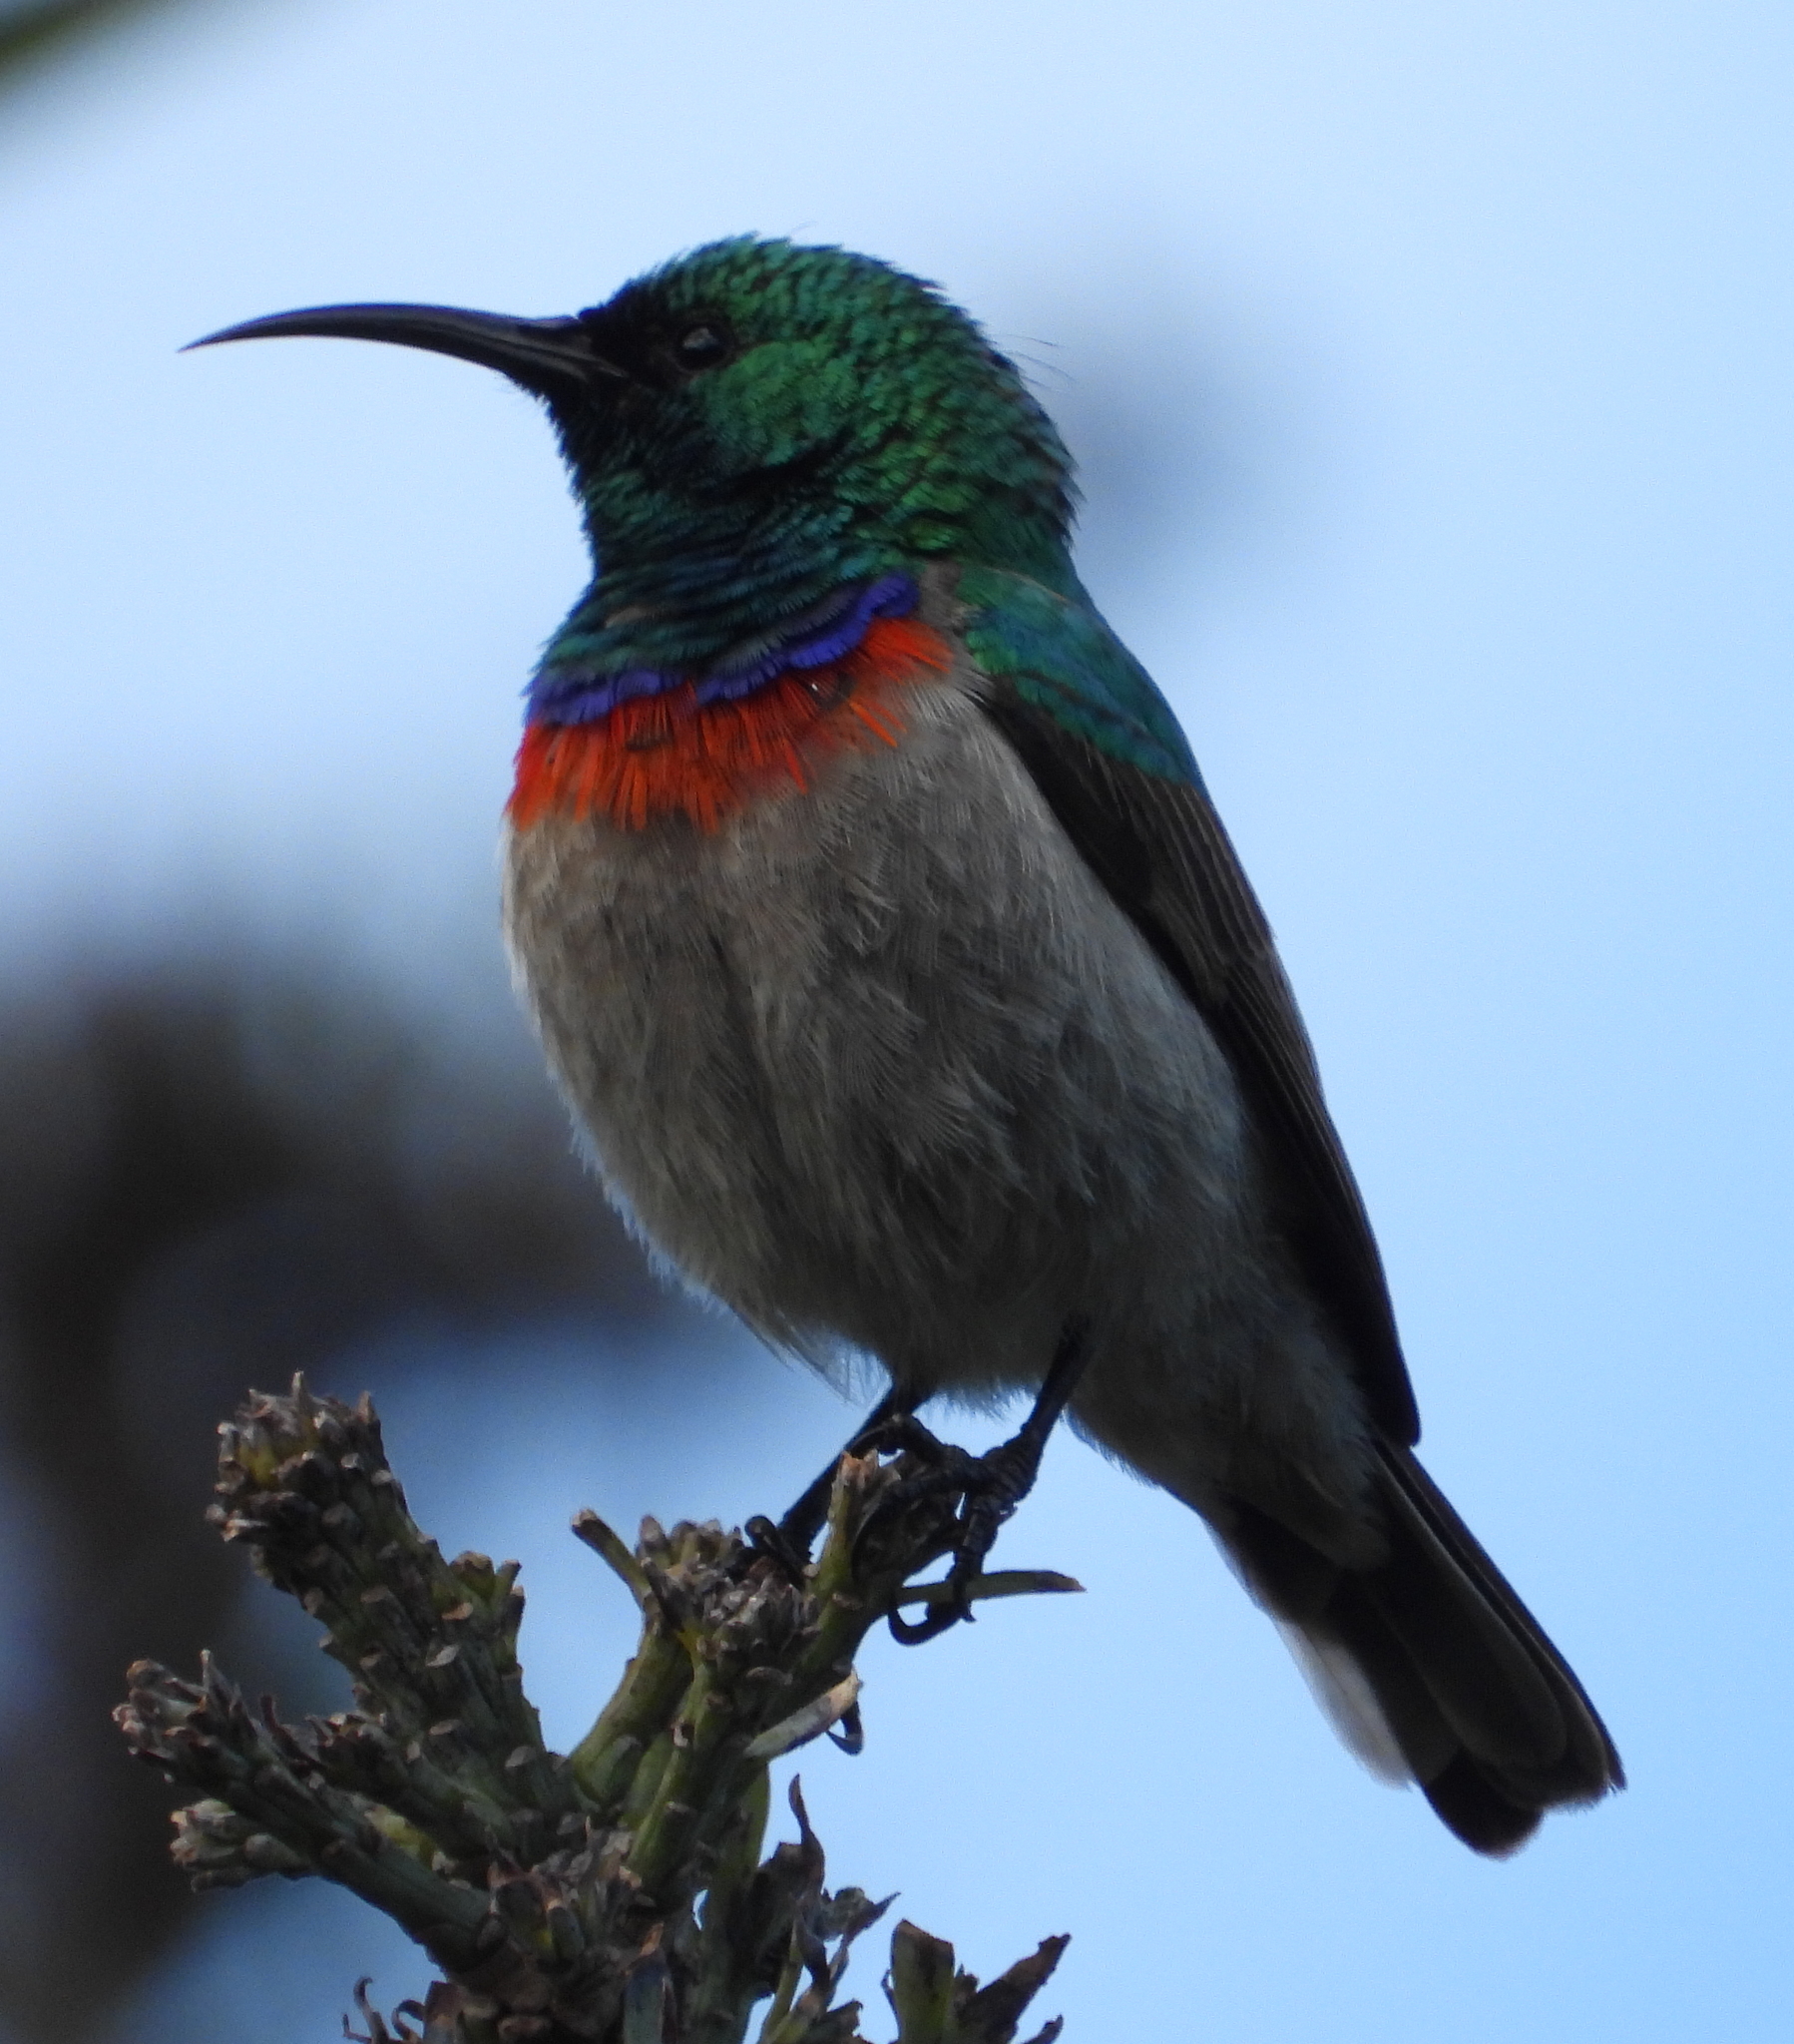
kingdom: Animalia
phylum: Chordata
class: Aves
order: Passeriformes
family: Nectariniidae
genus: Cinnyris
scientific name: Cinnyris chalybeus
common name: Southern double-collared sunbird
